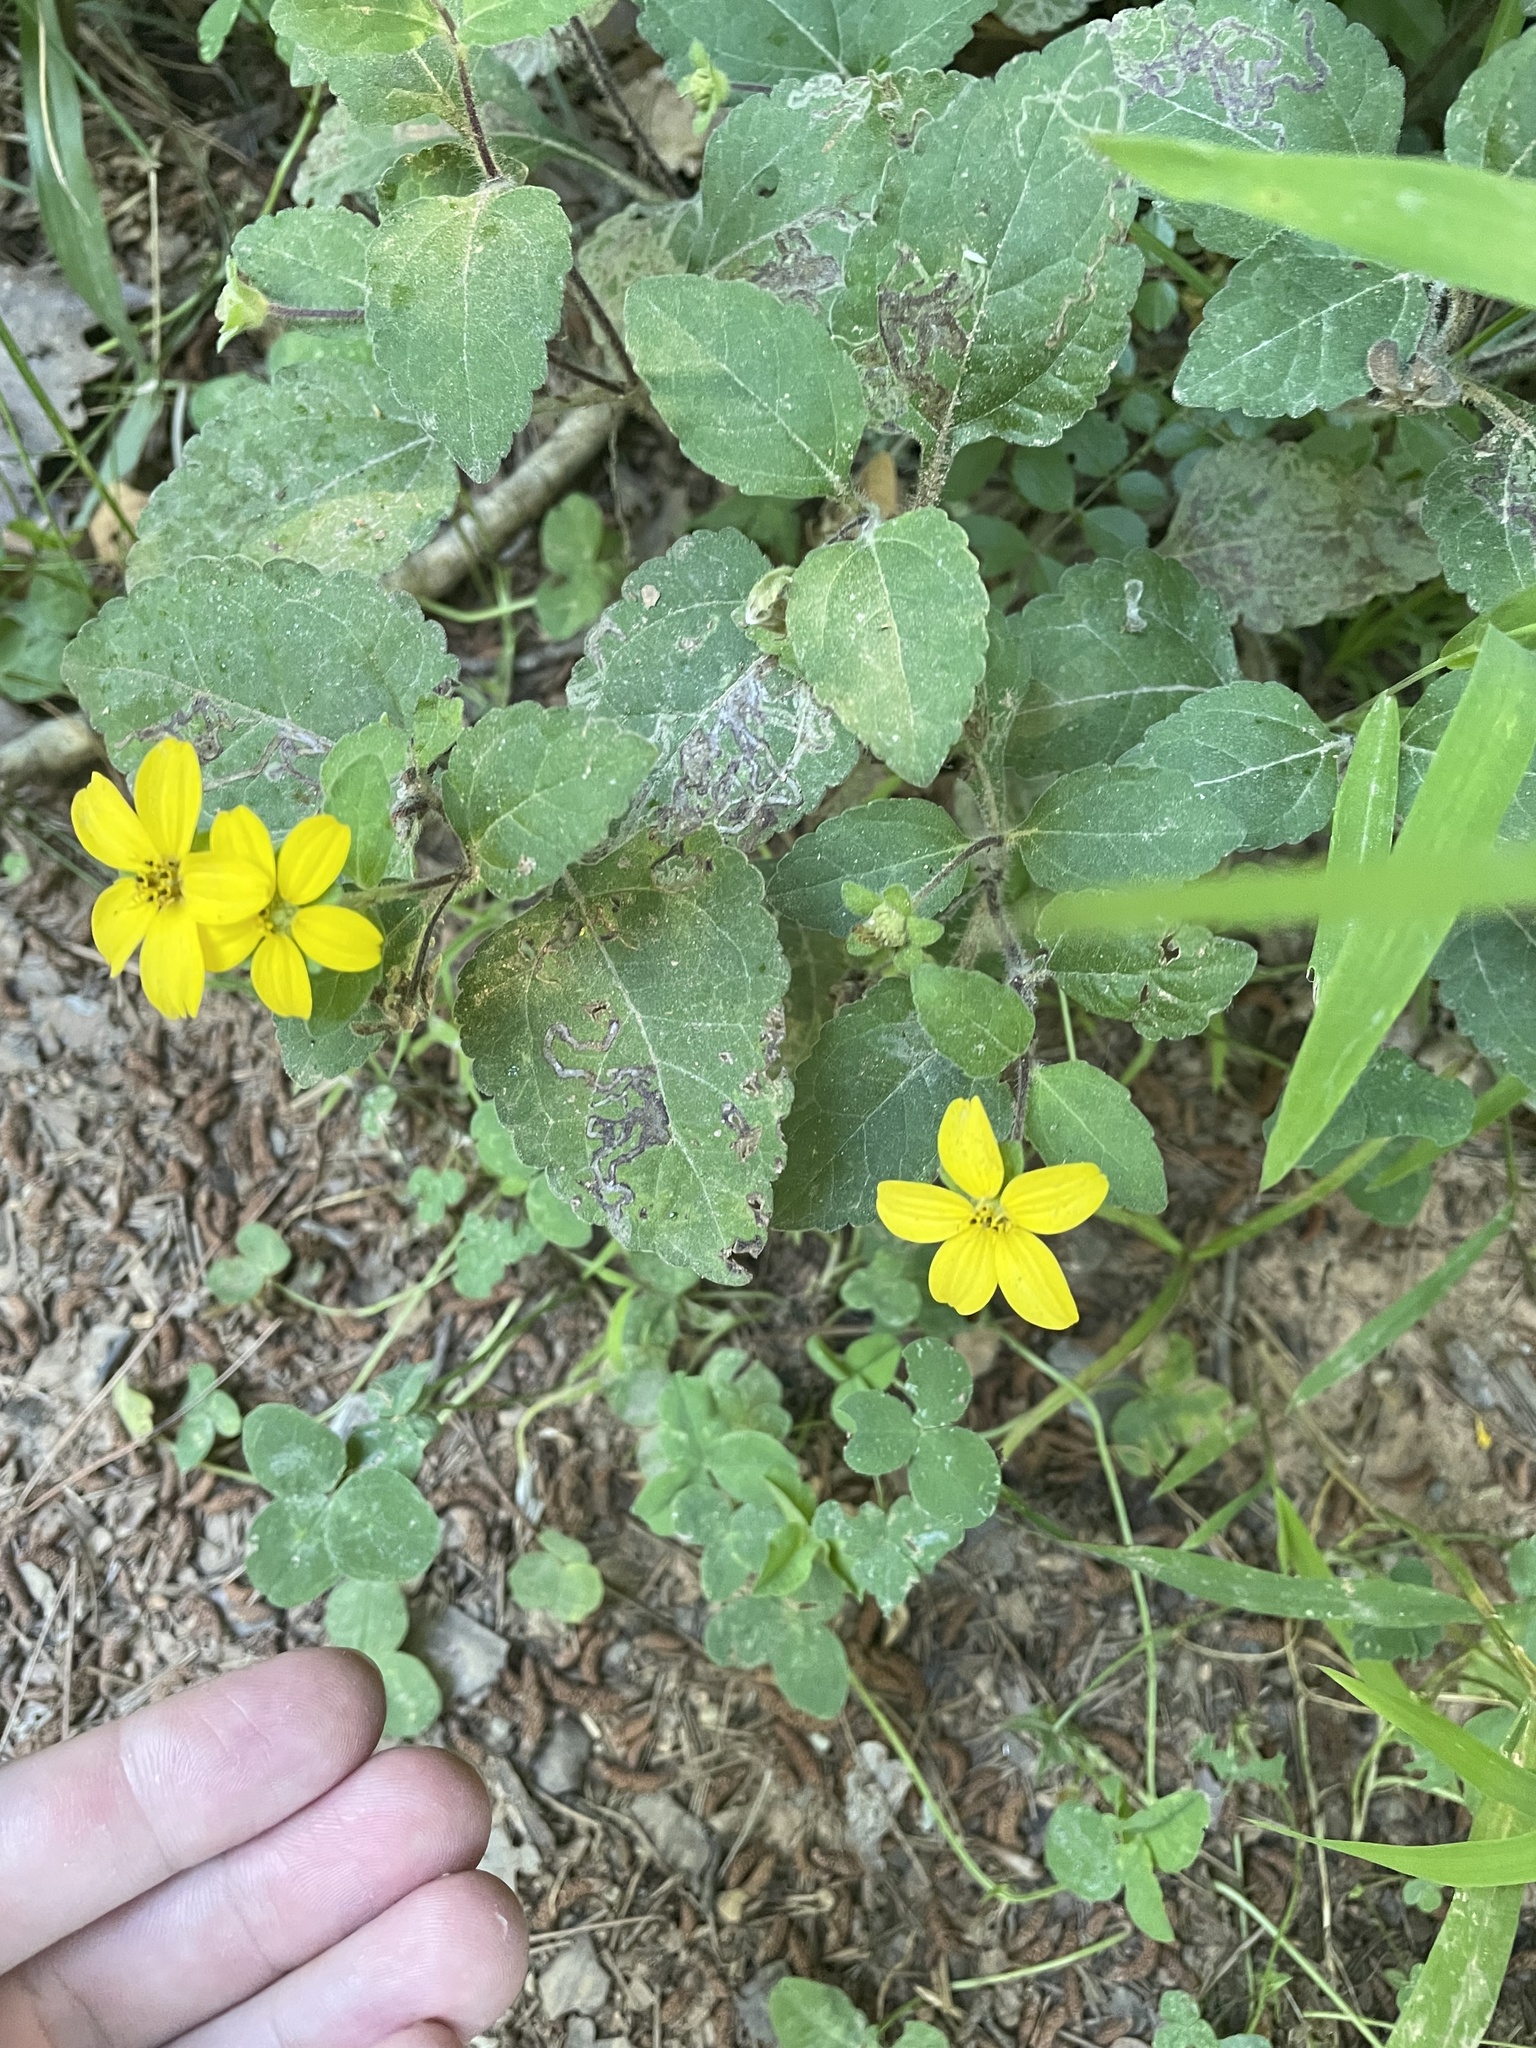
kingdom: Plantae
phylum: Tracheophyta
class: Magnoliopsida
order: Asterales
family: Asteraceae
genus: Chrysogonum
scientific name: Chrysogonum virginianum
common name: Golden-knee
